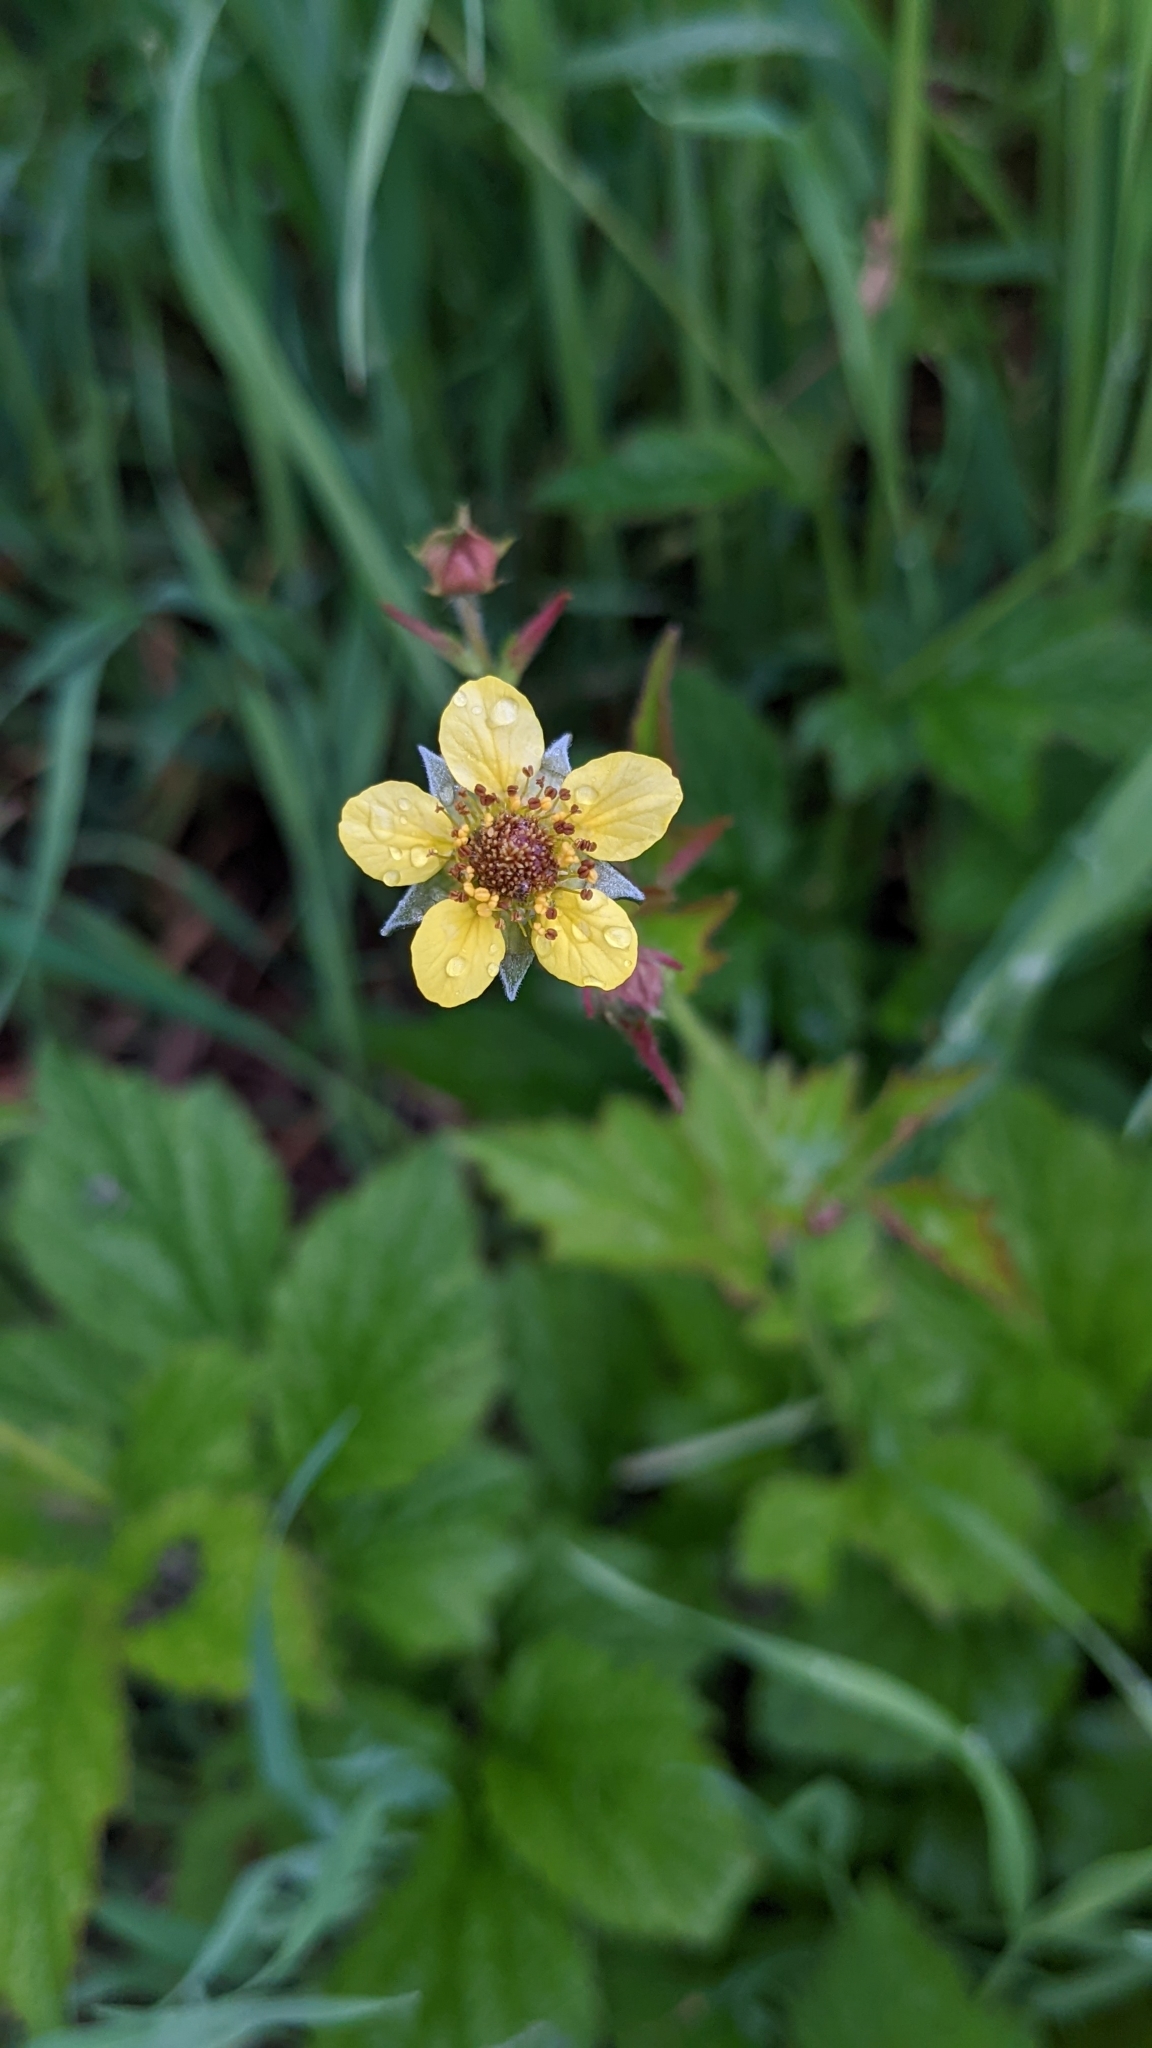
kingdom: Plantae
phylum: Tracheophyta
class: Magnoliopsida
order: Rosales
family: Rosaceae
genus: Geum
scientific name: Geum urbanum
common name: Wood avens
